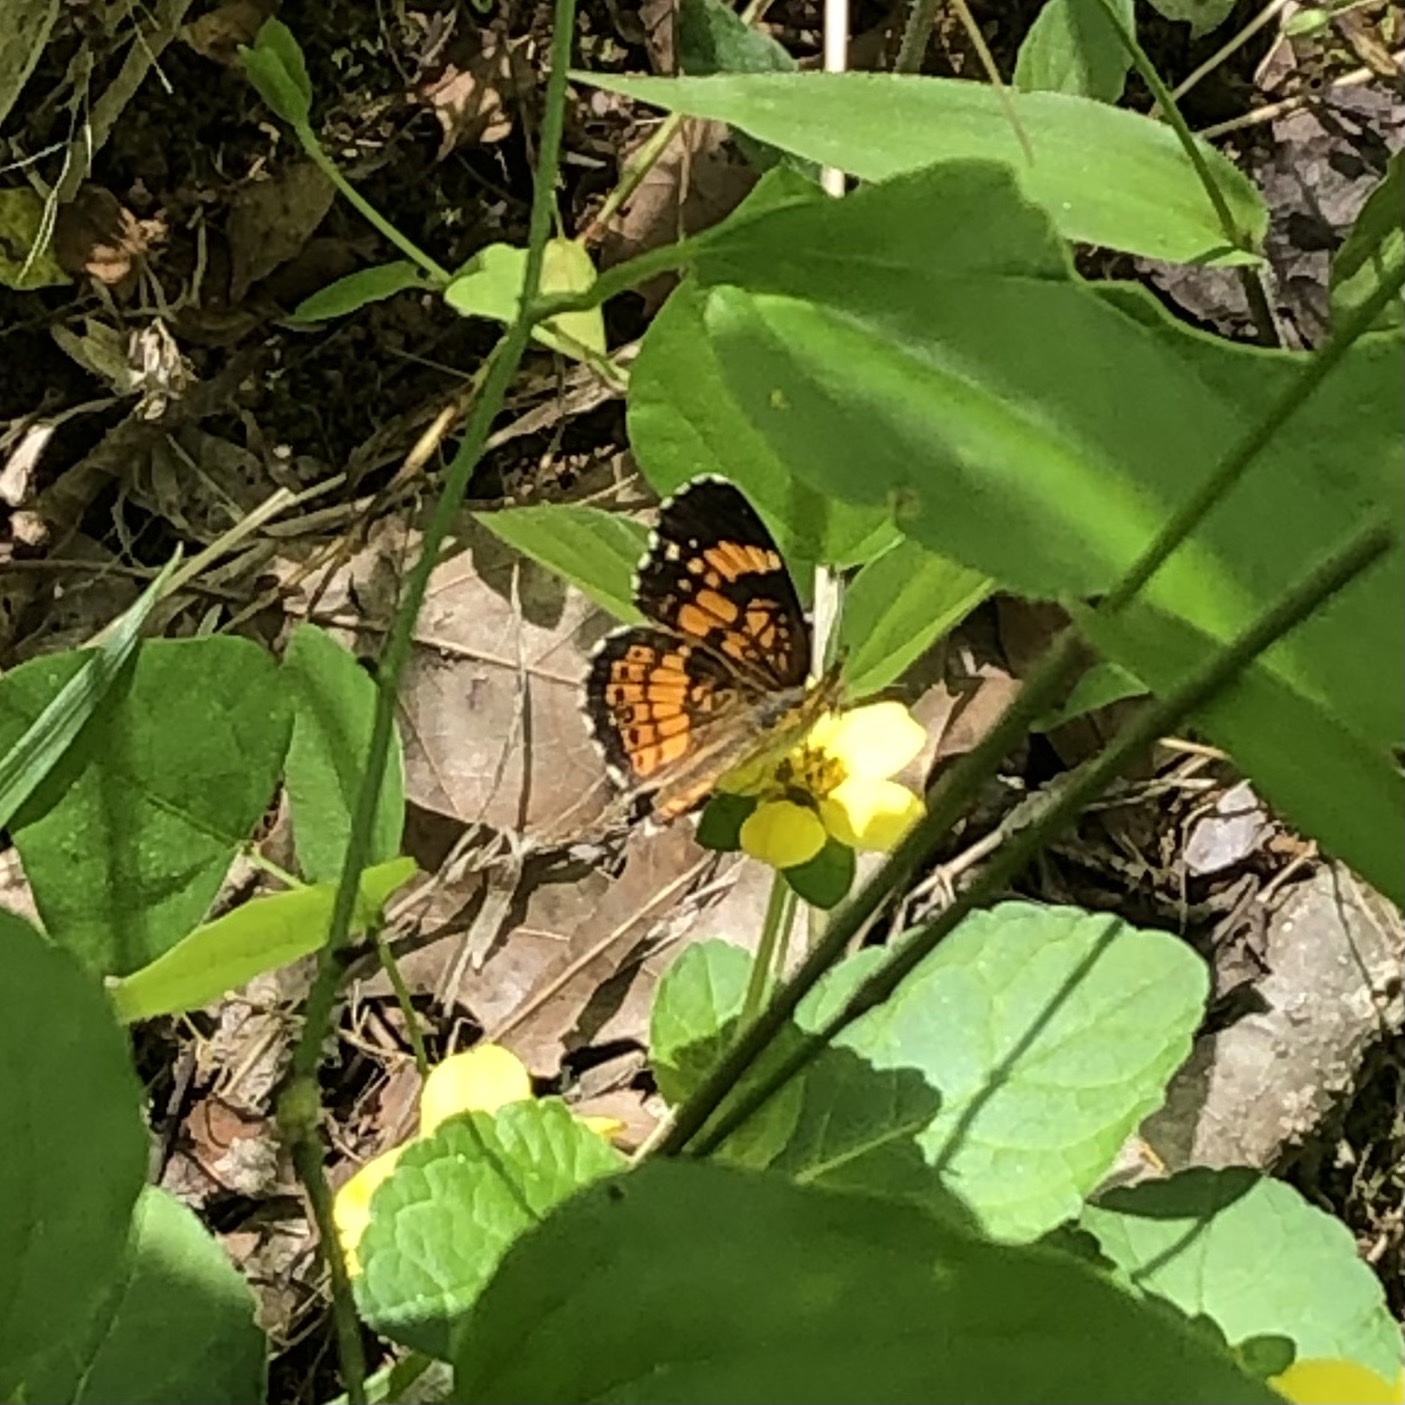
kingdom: Animalia
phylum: Arthropoda
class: Insecta
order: Lepidoptera
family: Nymphalidae
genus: Chlosyne
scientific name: Chlosyne nycteis
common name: Silvery checkerspot
